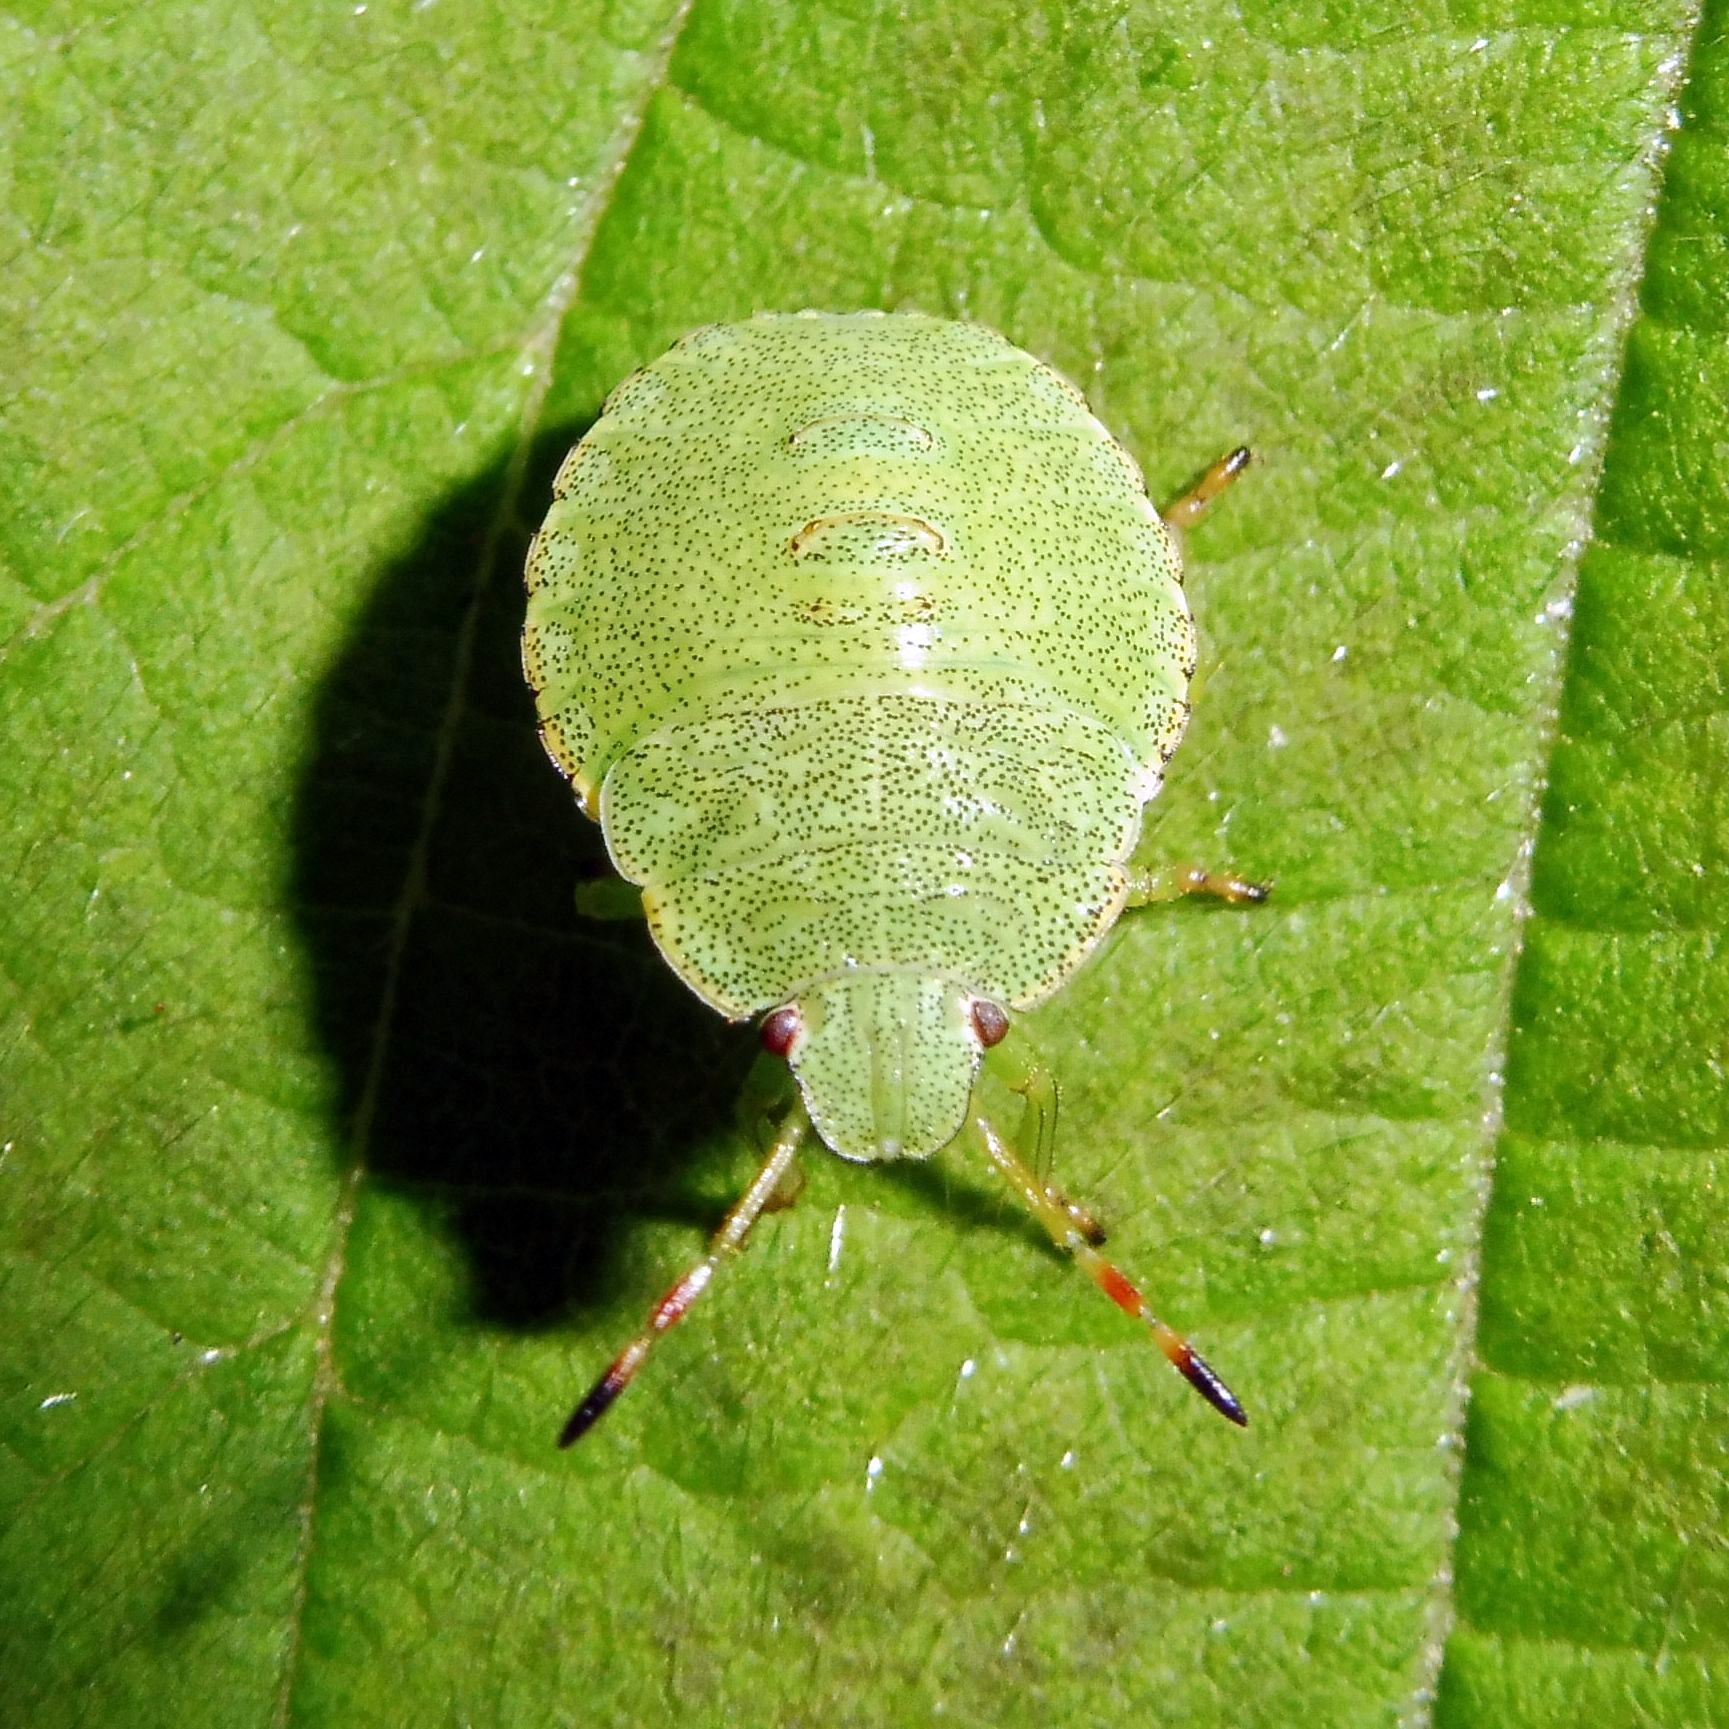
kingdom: Animalia
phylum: Arthropoda
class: Insecta
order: Hemiptera
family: Pentatomidae
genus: Palomena
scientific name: Palomena prasina
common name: Green shieldbug
